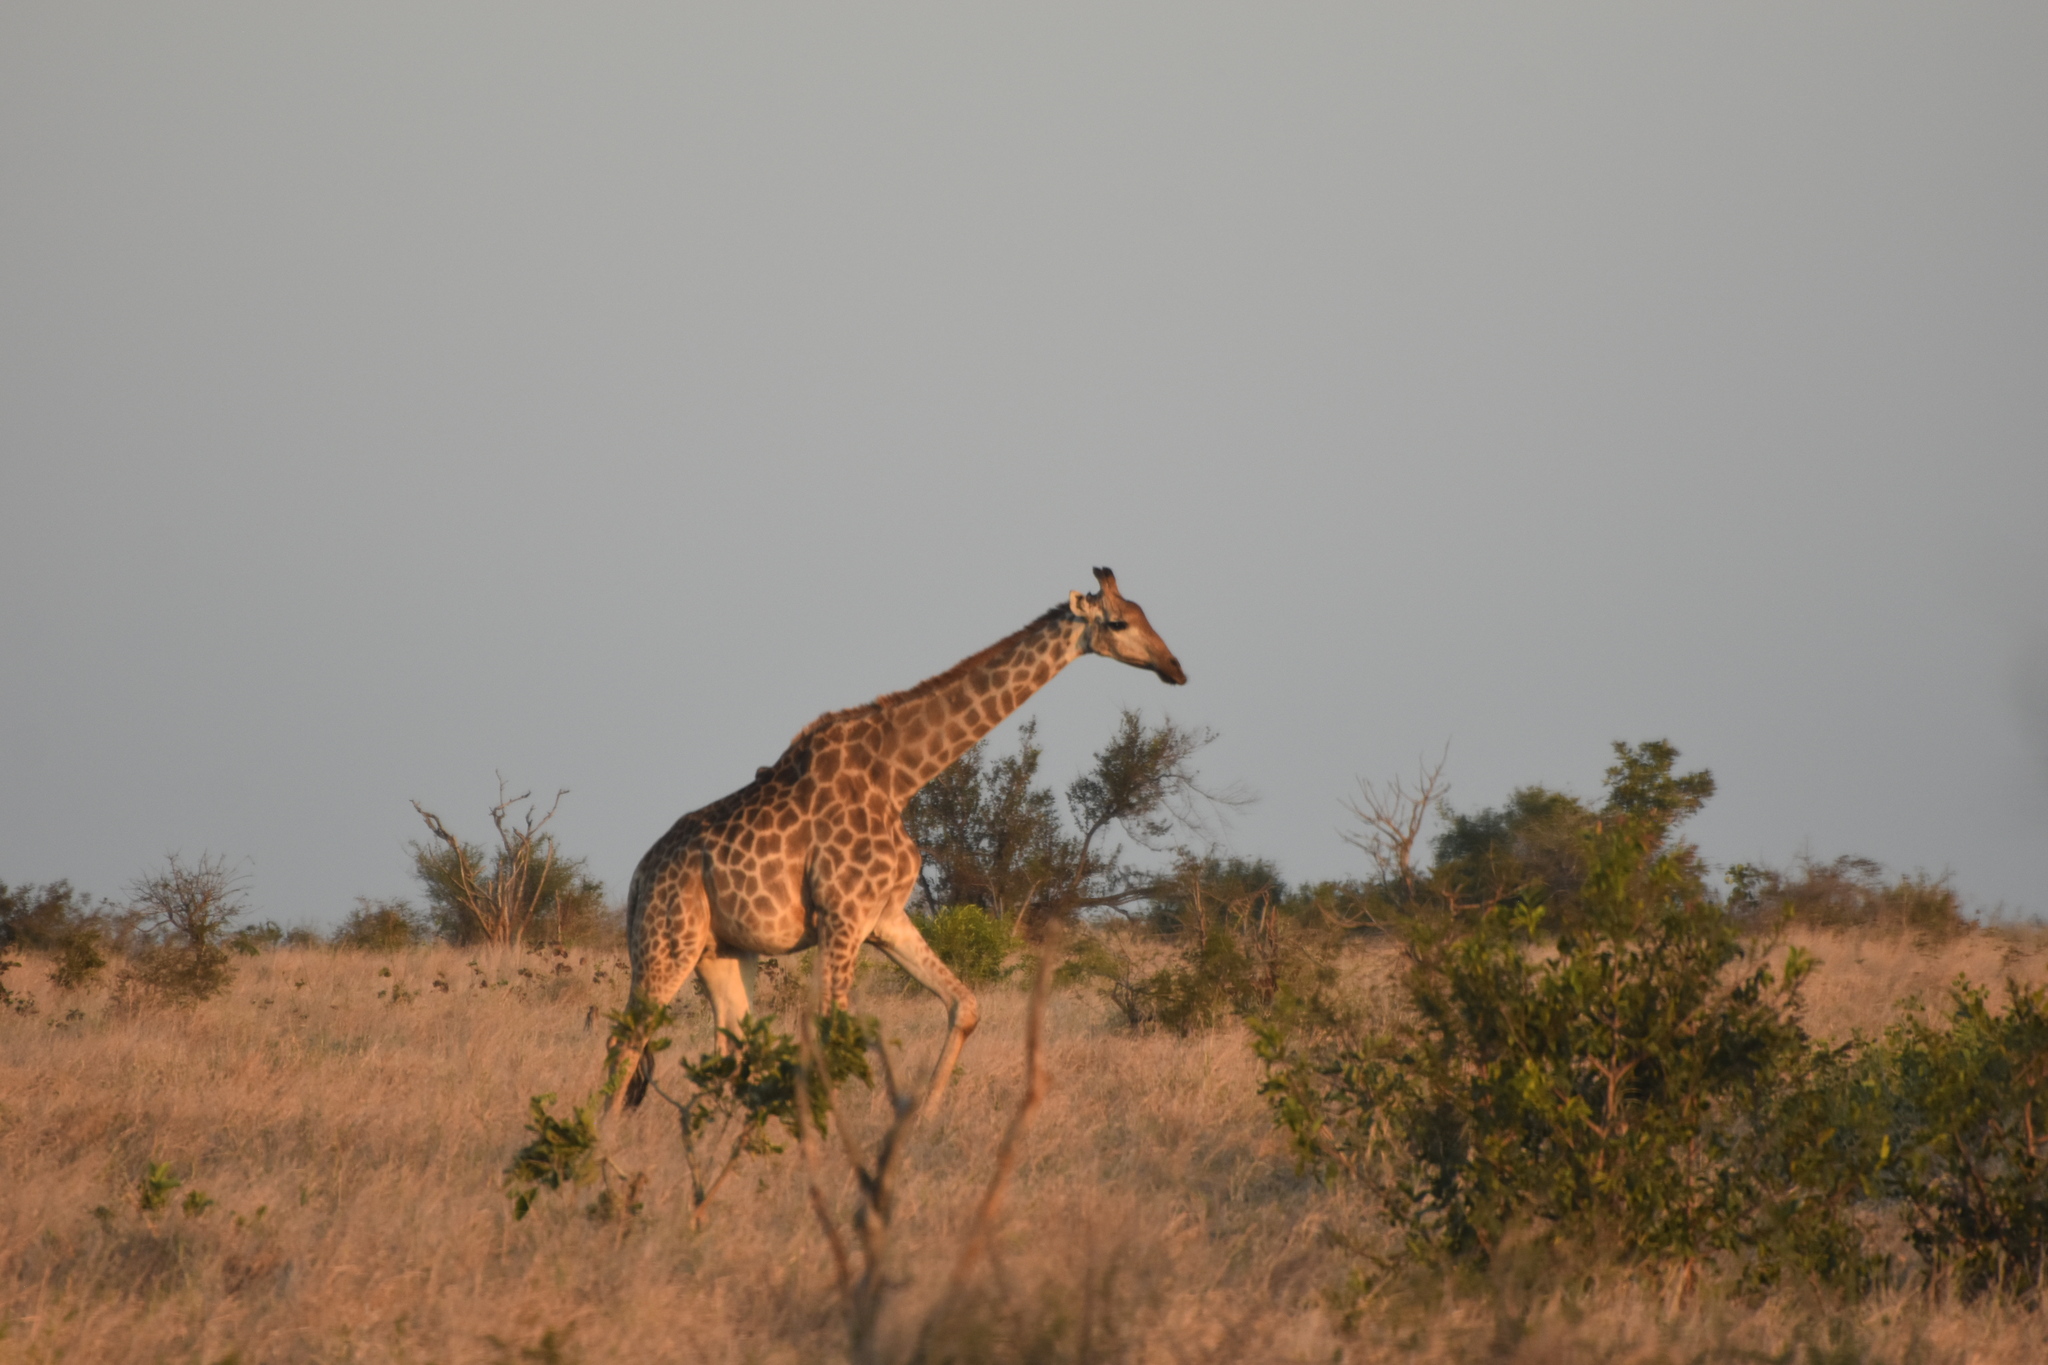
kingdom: Animalia
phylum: Chordata
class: Mammalia
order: Artiodactyla
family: Giraffidae
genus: Giraffa
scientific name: Giraffa giraffa
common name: Southern giraffe
